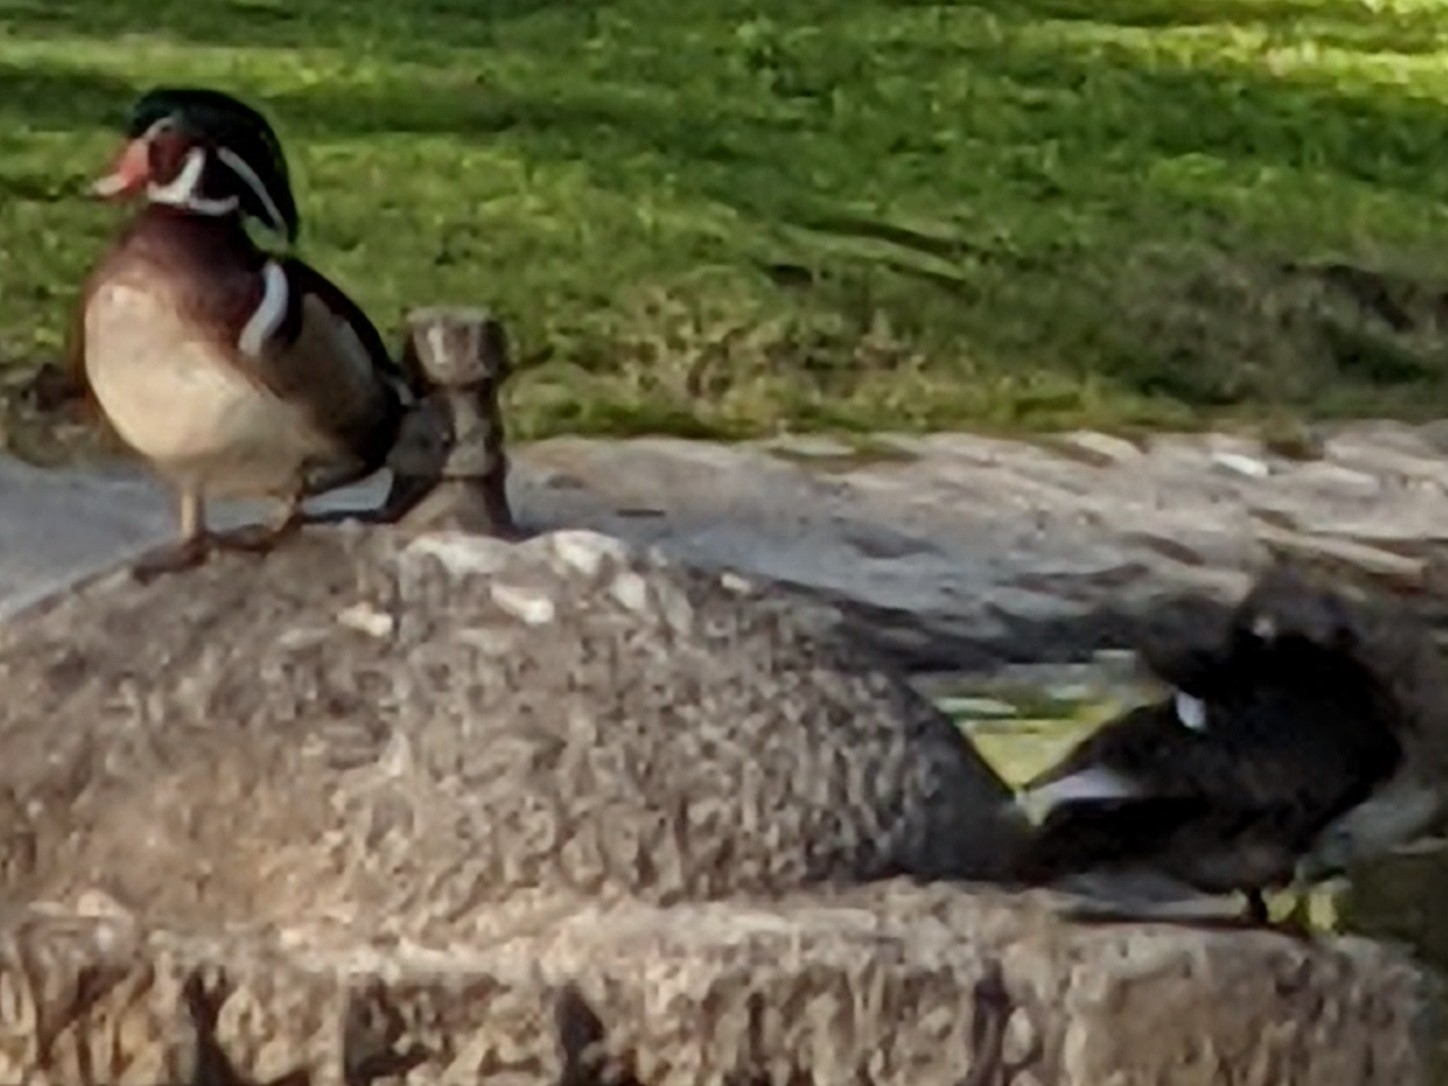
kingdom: Animalia
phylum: Chordata
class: Aves
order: Anseriformes
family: Anatidae
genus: Aix
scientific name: Aix sponsa
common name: Wood duck
